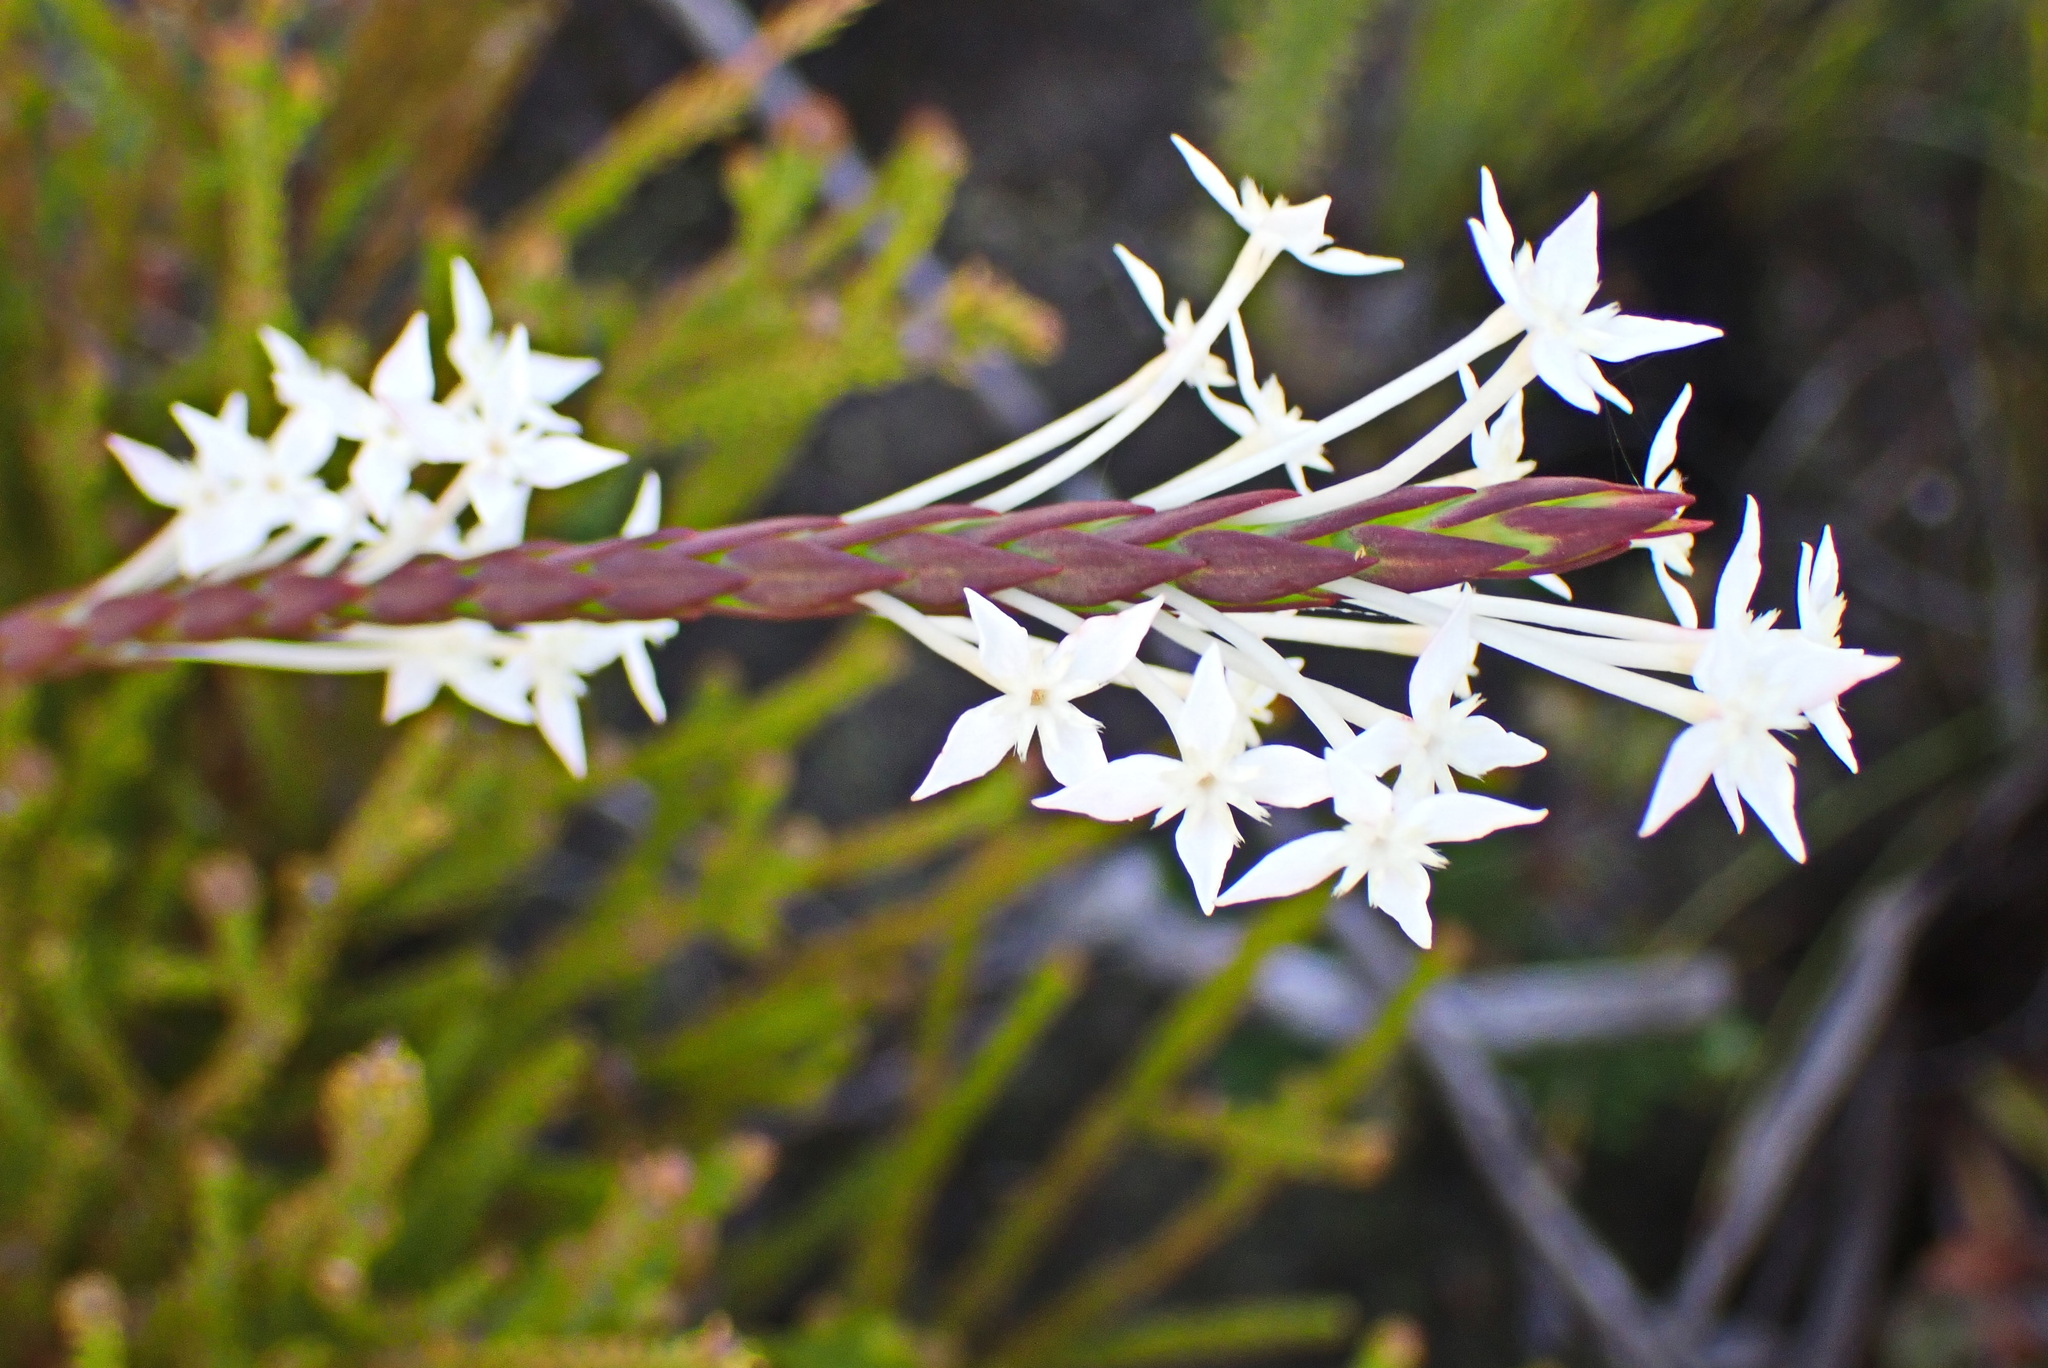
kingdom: Plantae
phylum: Tracheophyta
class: Magnoliopsida
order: Malvales
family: Thymelaeaceae
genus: Struthiola
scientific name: Struthiola myrsinites
